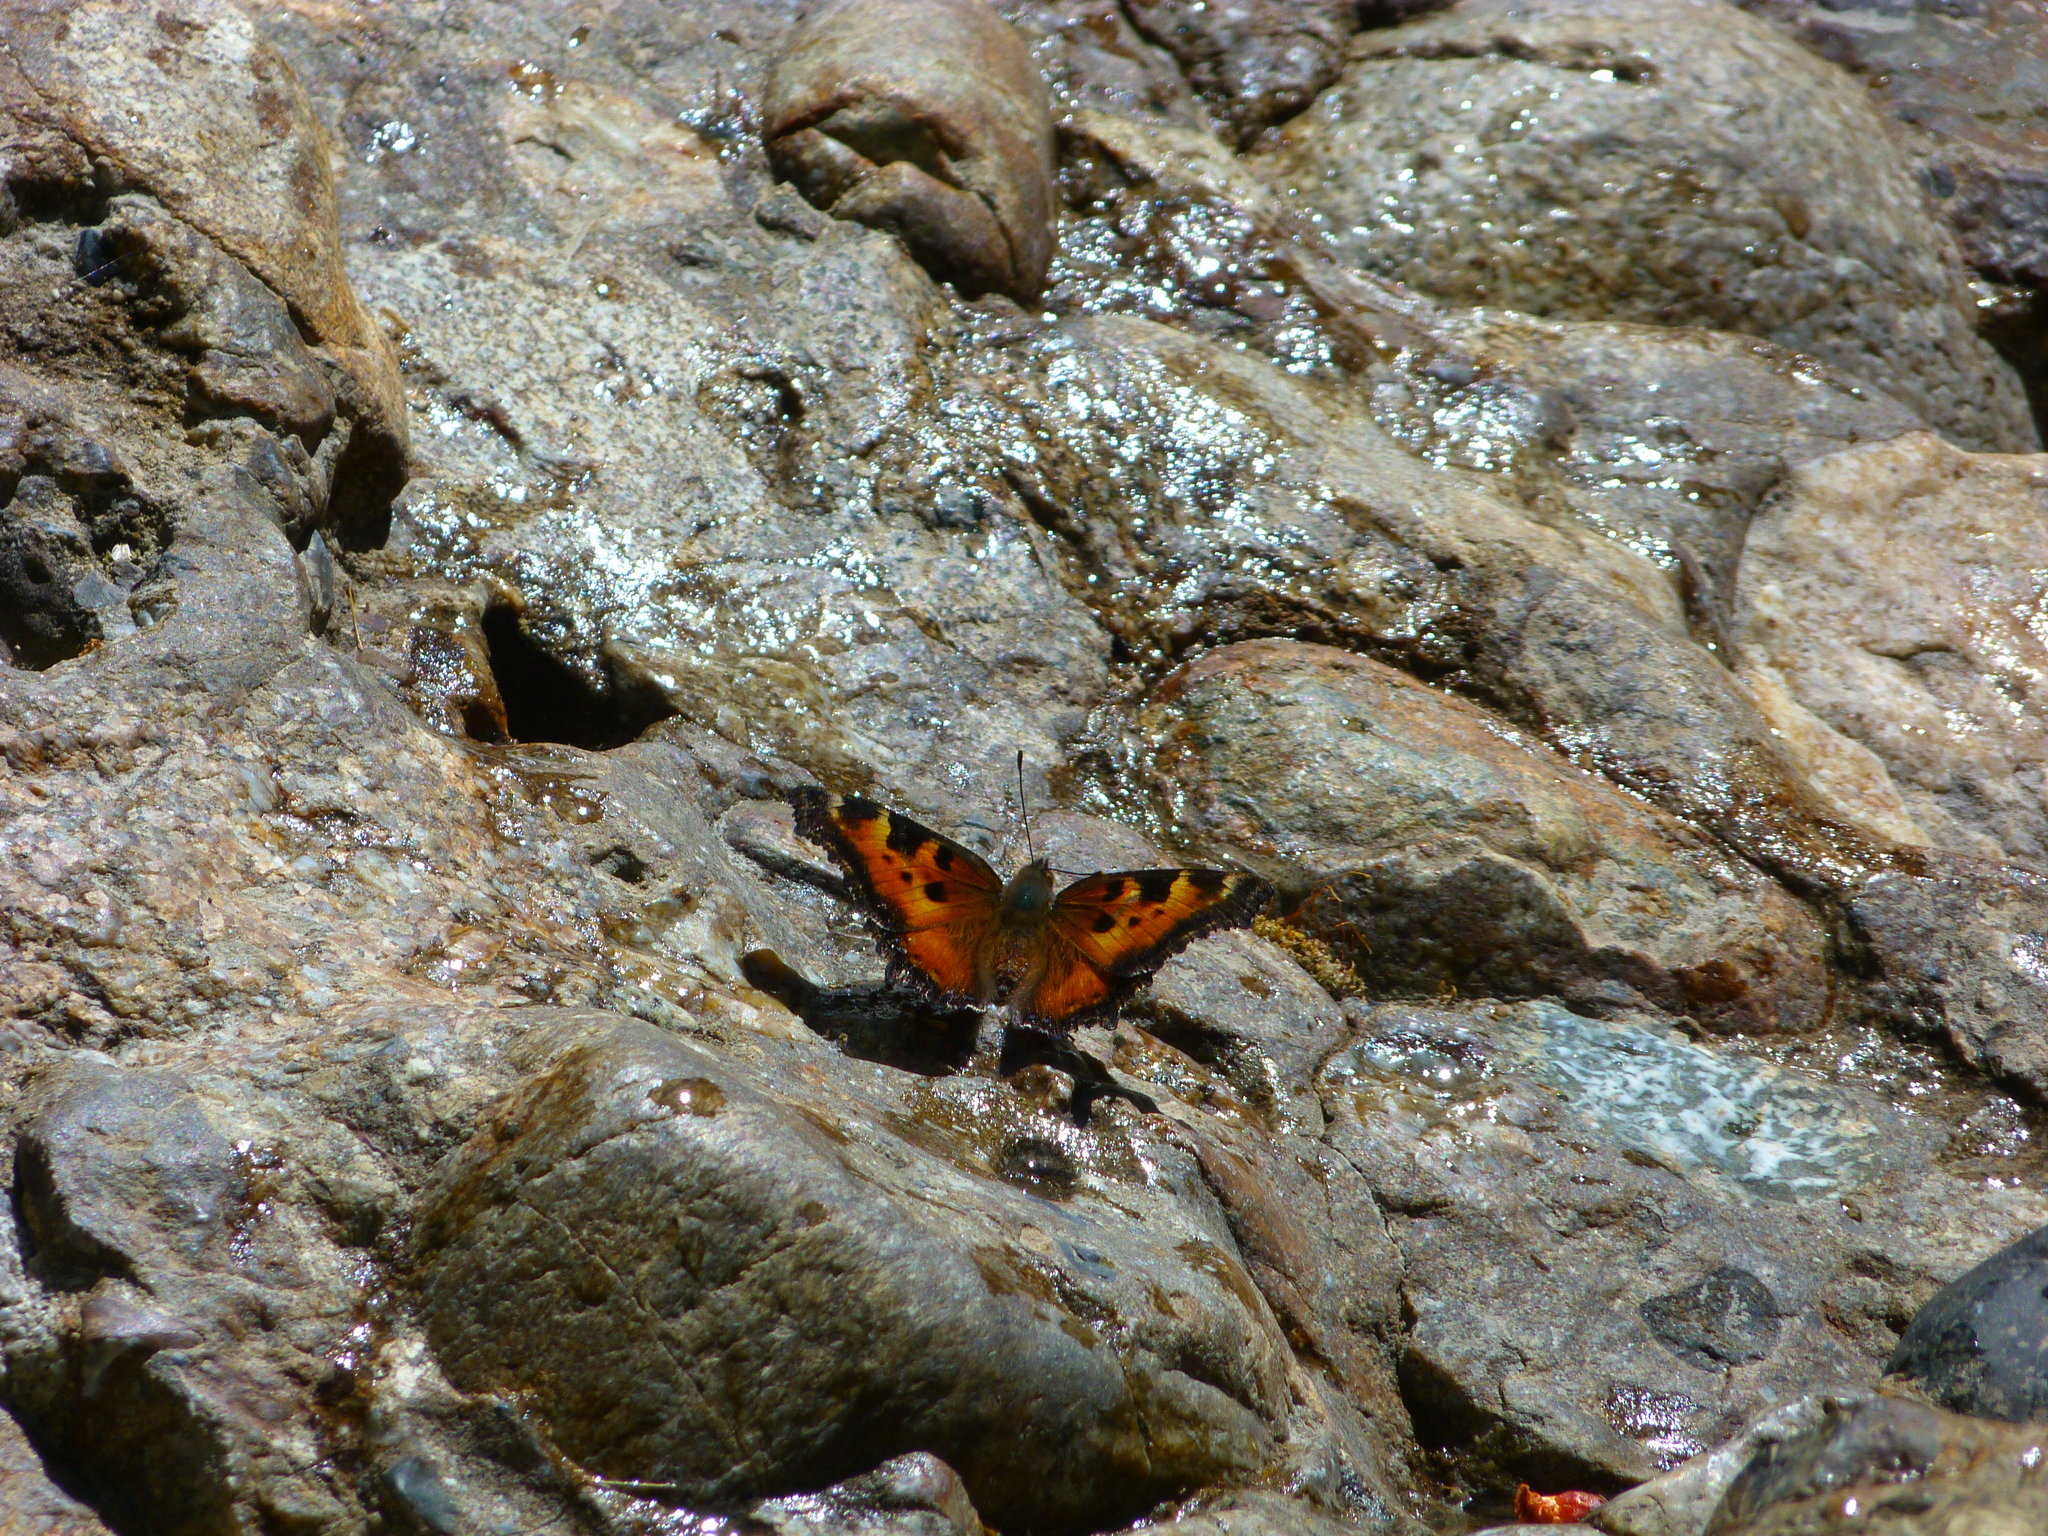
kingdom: Animalia
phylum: Arthropoda
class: Insecta
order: Lepidoptera
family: Nymphalidae
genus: Nymphalis
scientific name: Nymphalis californica
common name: California tortoiseshell
